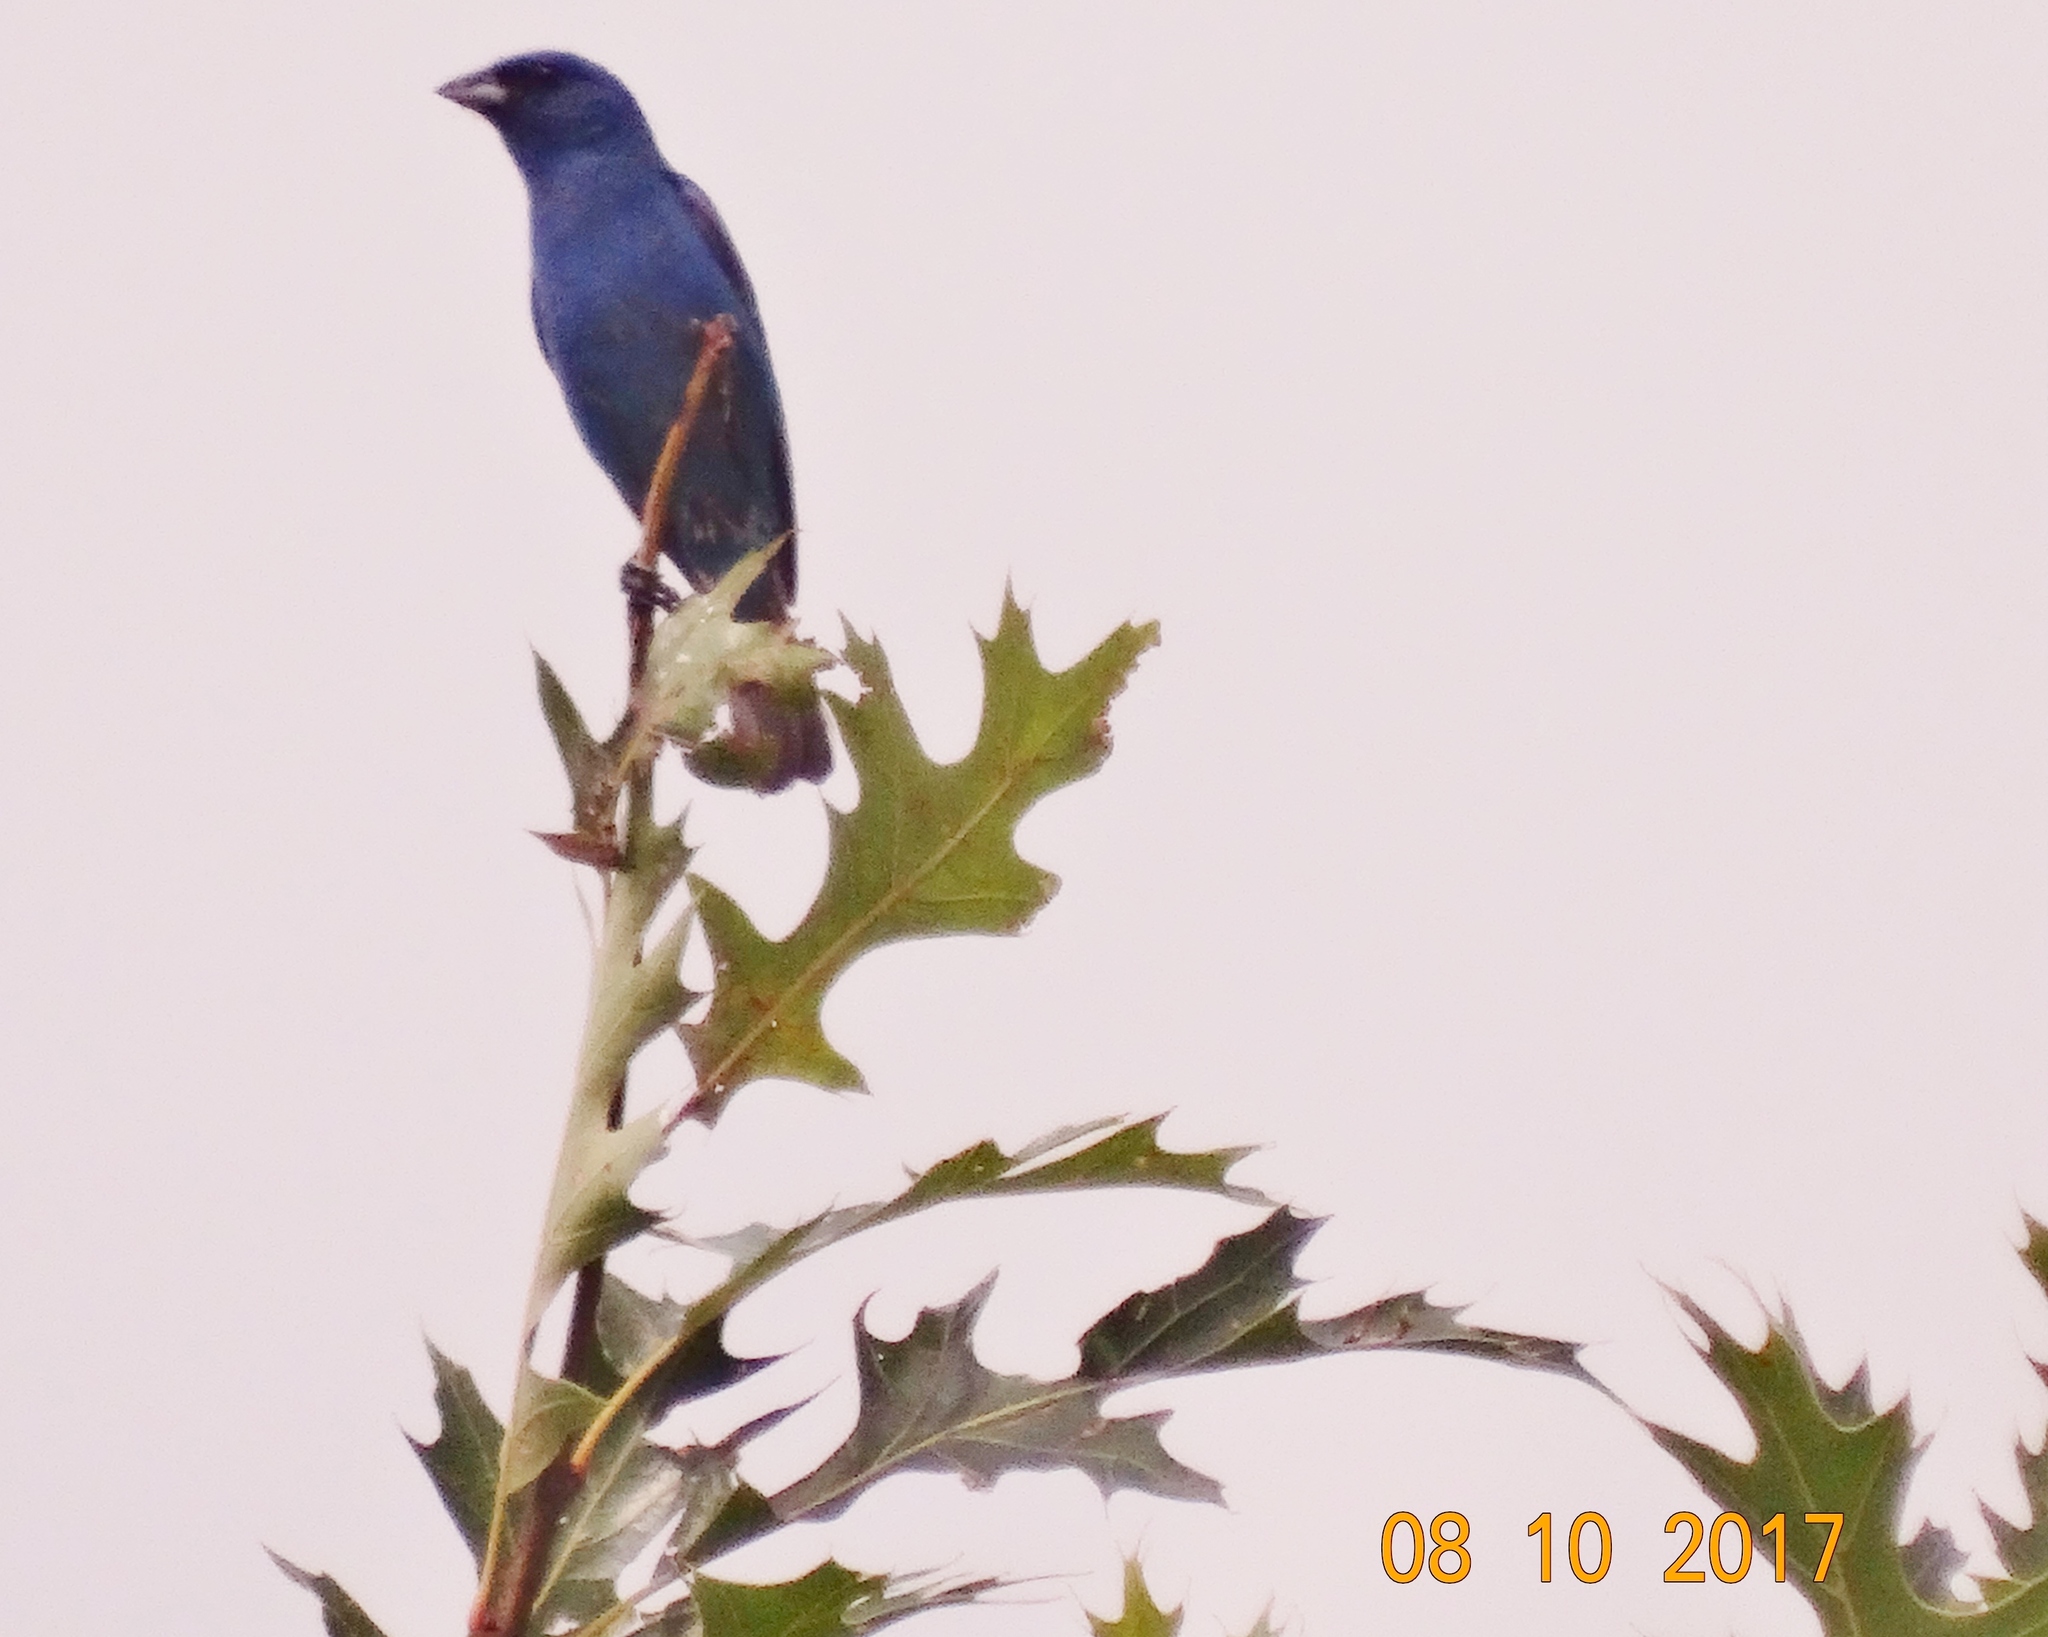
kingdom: Animalia
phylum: Chordata
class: Aves
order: Passeriformes
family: Cardinalidae
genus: Passerina
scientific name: Passerina caerulea
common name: Blue grosbeak
